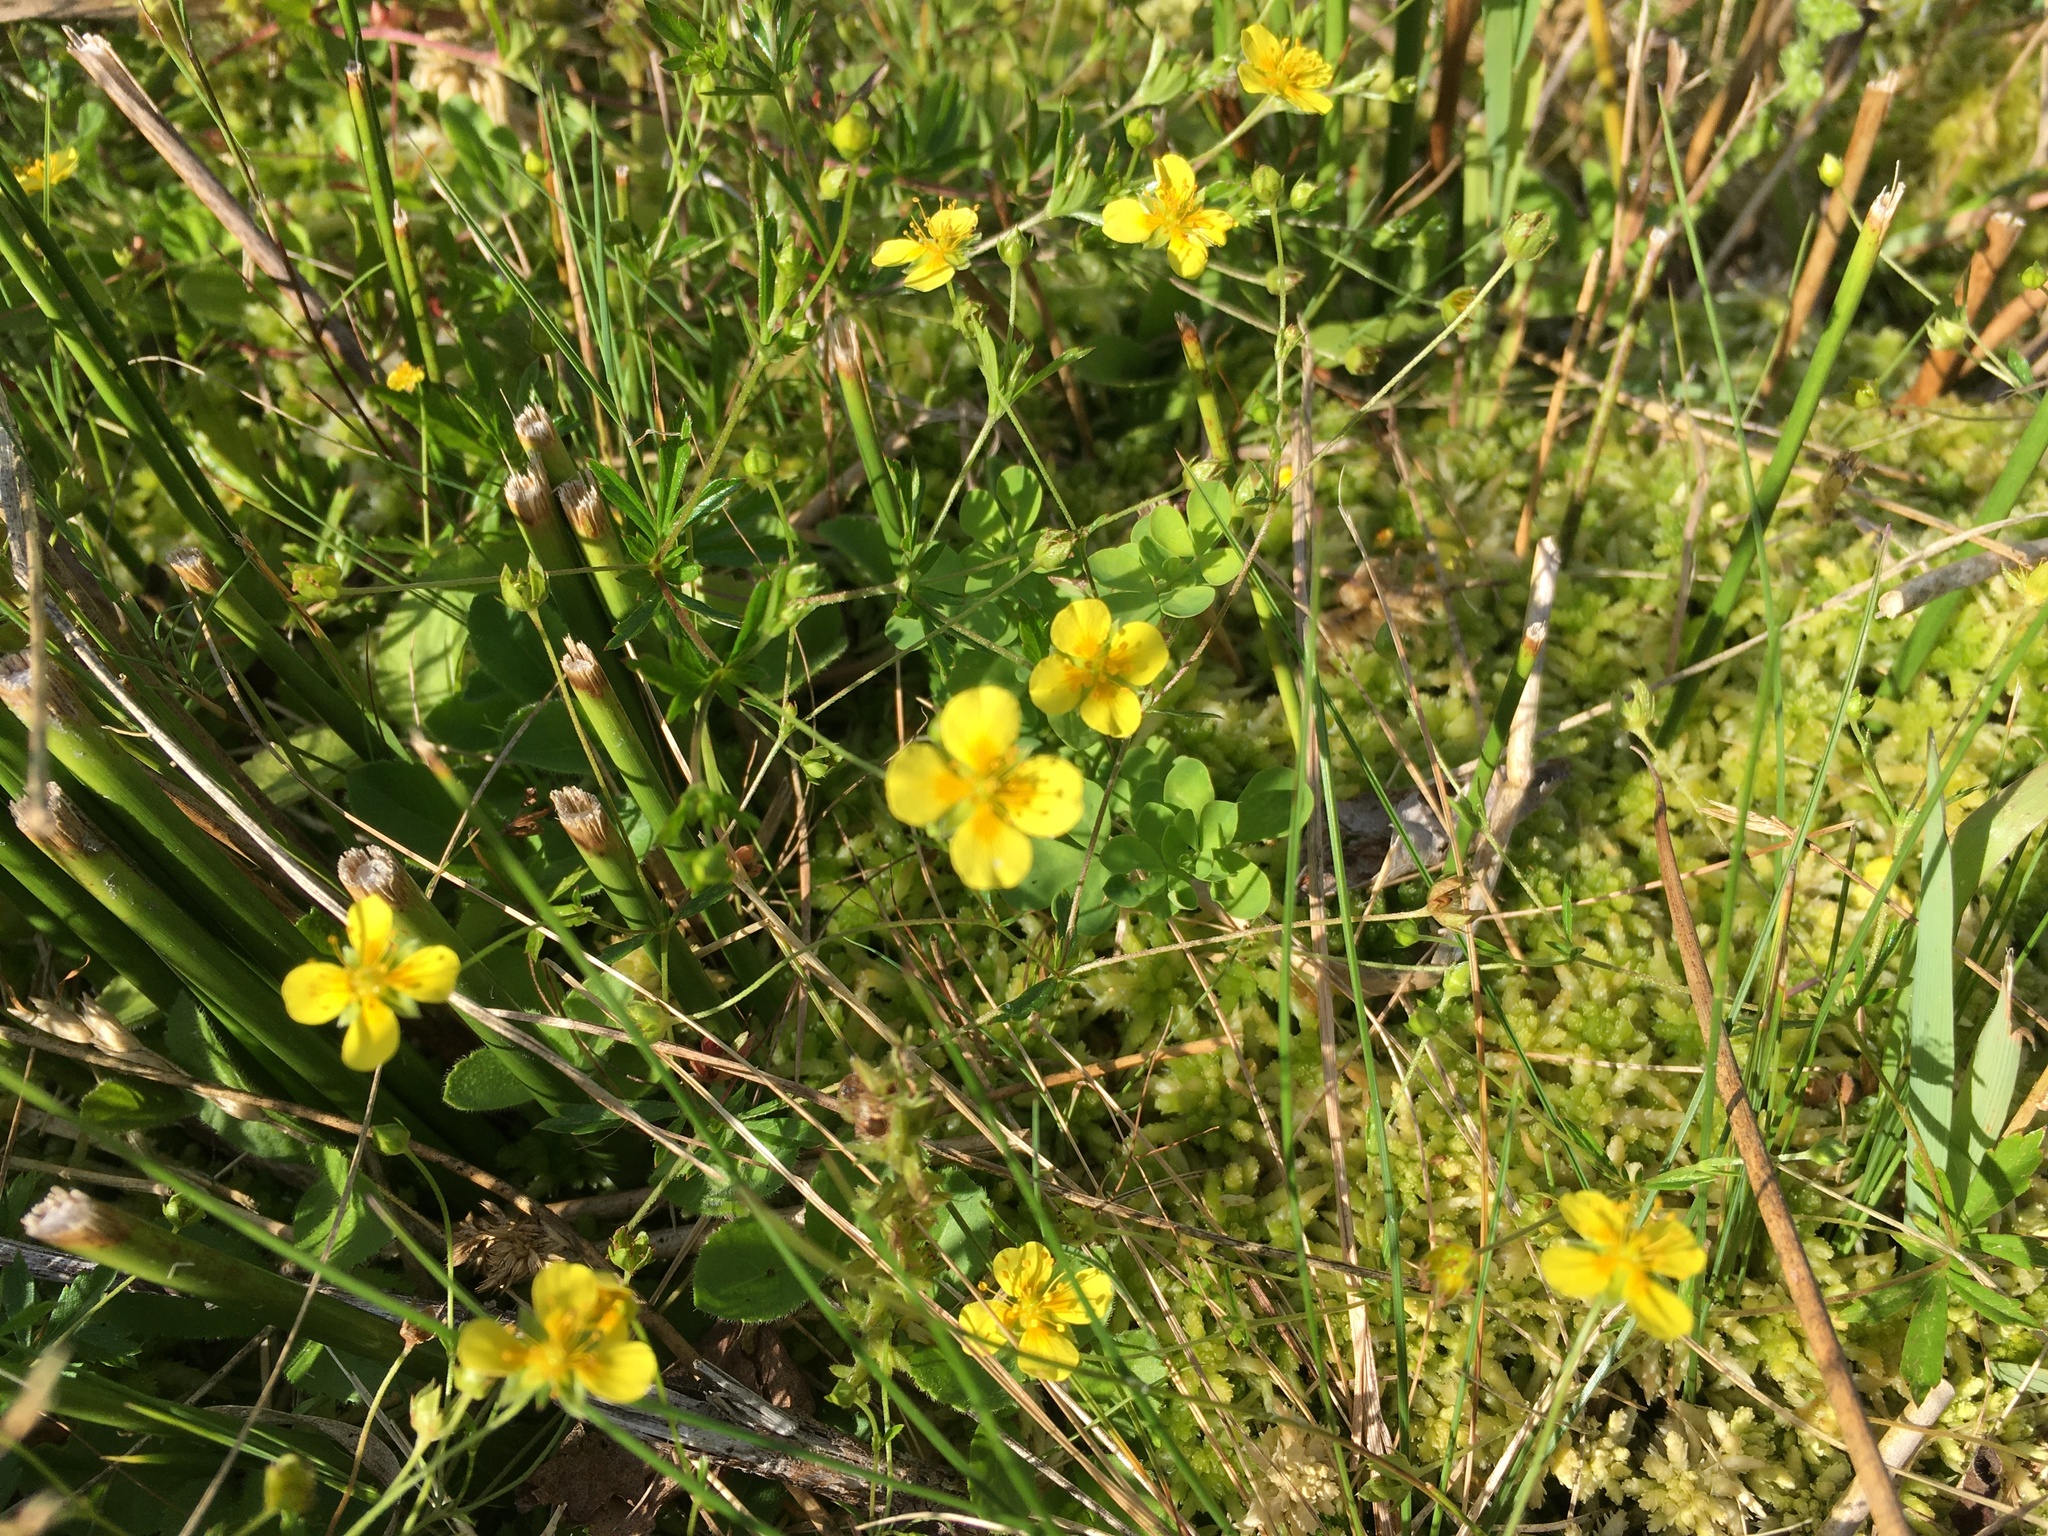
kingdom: Plantae
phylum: Tracheophyta
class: Magnoliopsida
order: Rosales
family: Rosaceae
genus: Potentilla
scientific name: Potentilla erecta
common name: Tormentil
